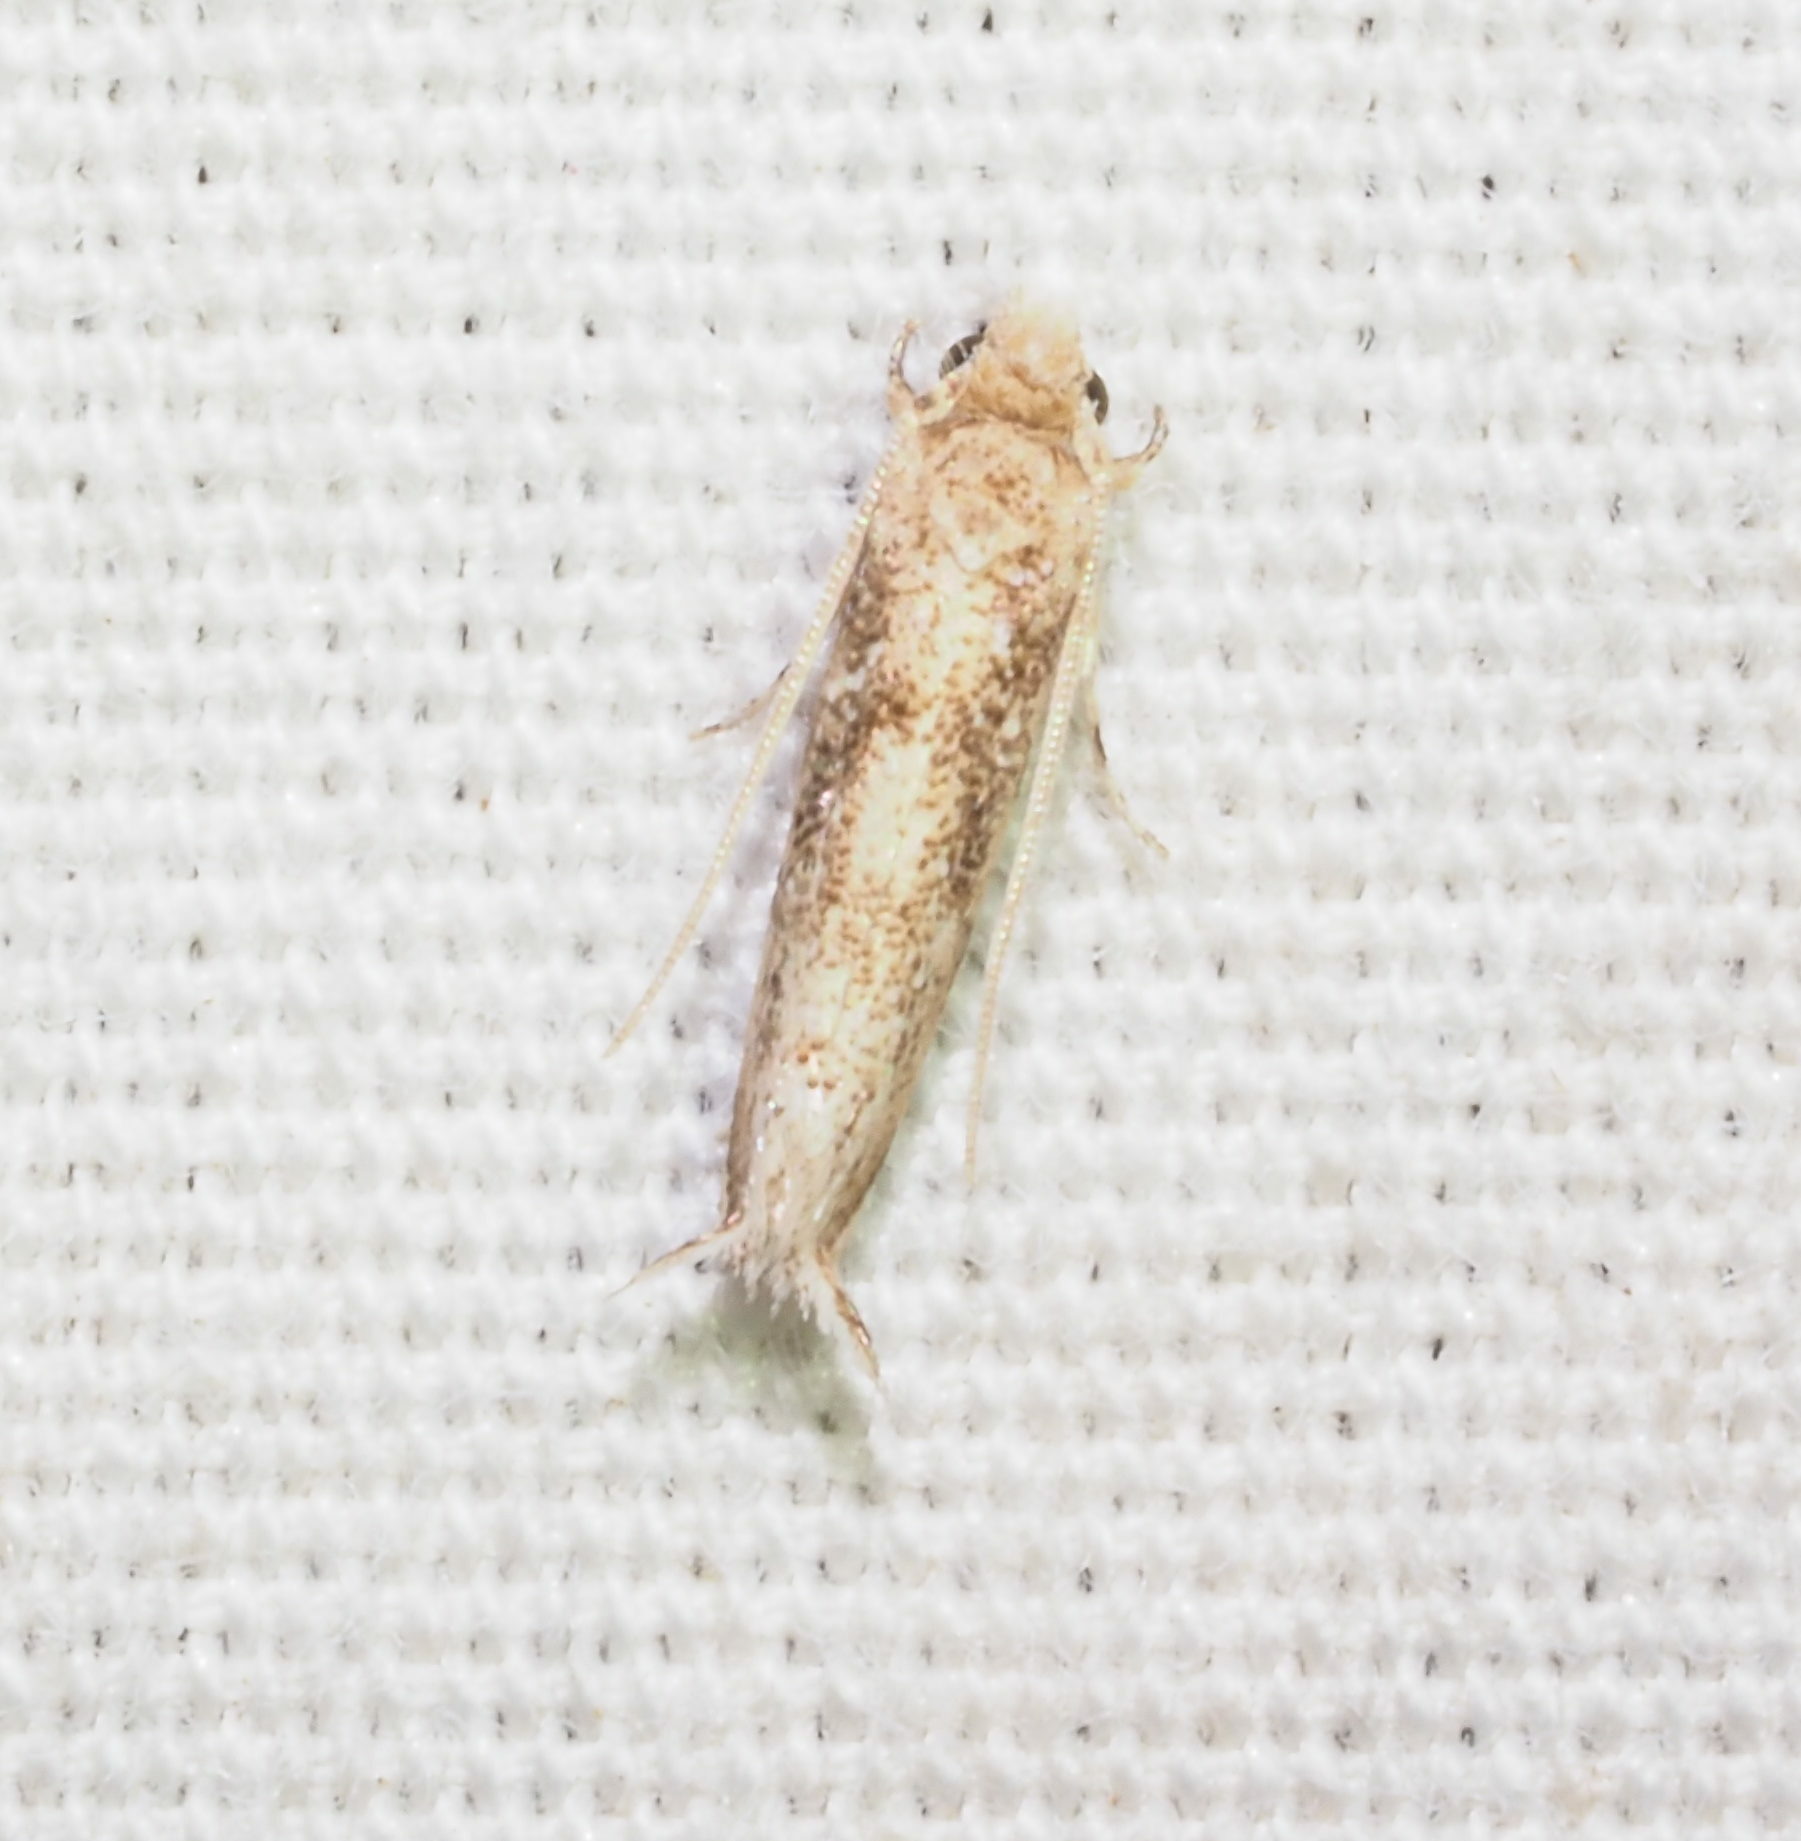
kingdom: Animalia
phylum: Arthropoda
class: Insecta
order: Lepidoptera
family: Tineidae
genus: Erechthias
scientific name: Erechthias minuscula
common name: Fungus moth
